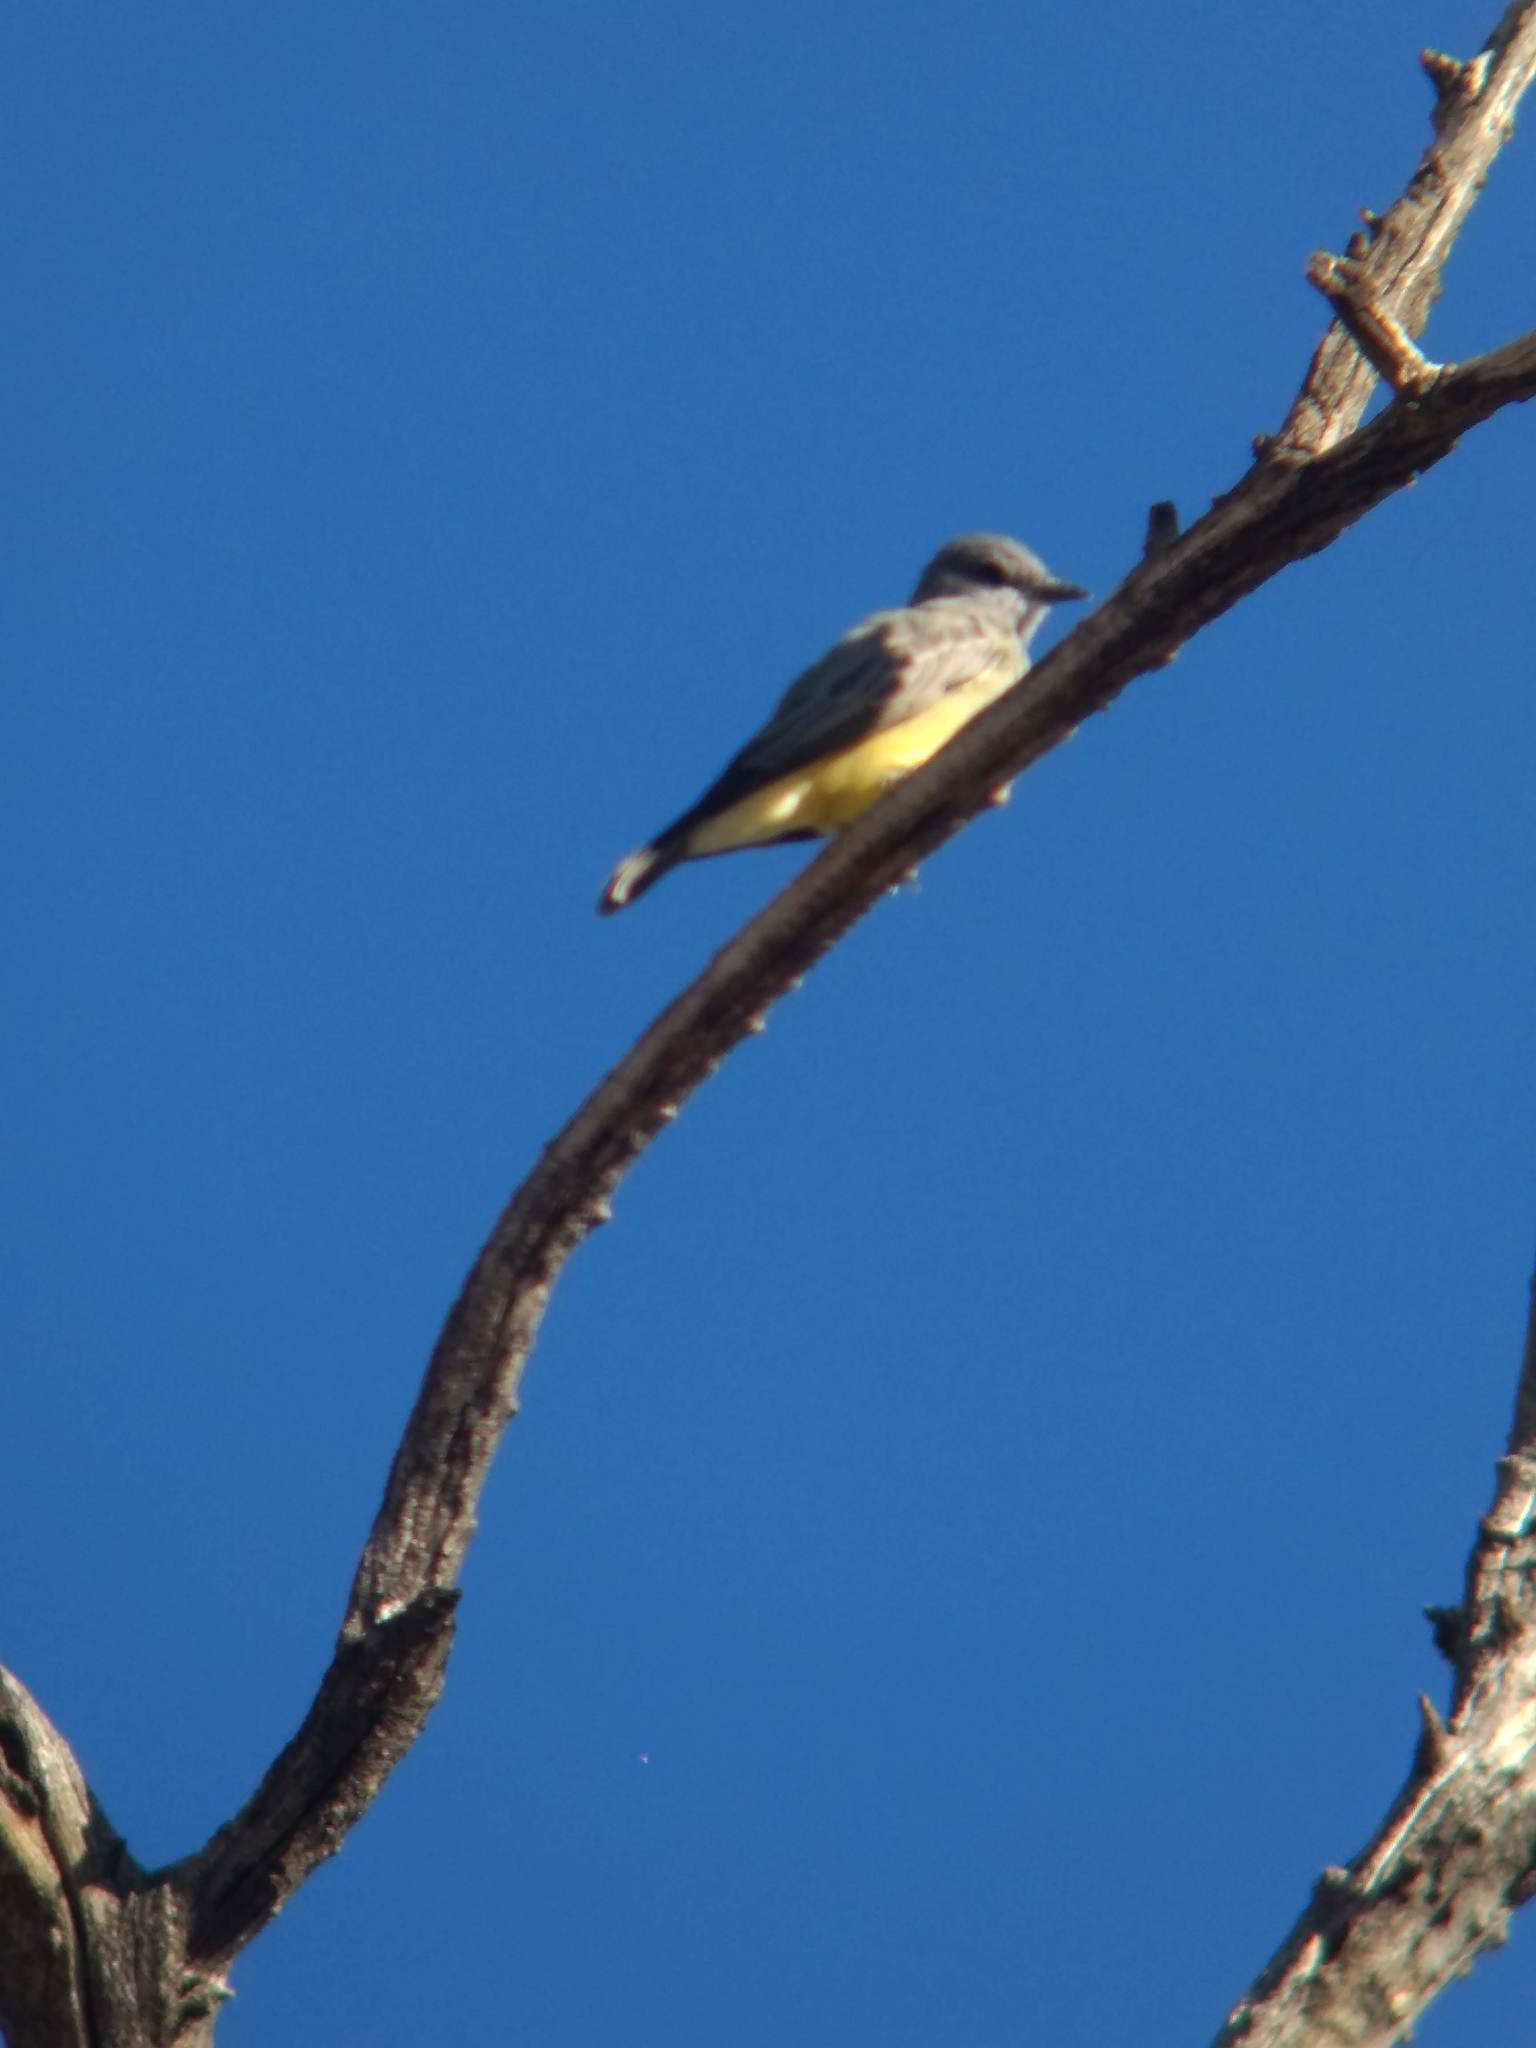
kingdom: Animalia
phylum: Chordata
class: Aves
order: Passeriformes
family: Tyrannidae
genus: Tyrannus
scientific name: Tyrannus
